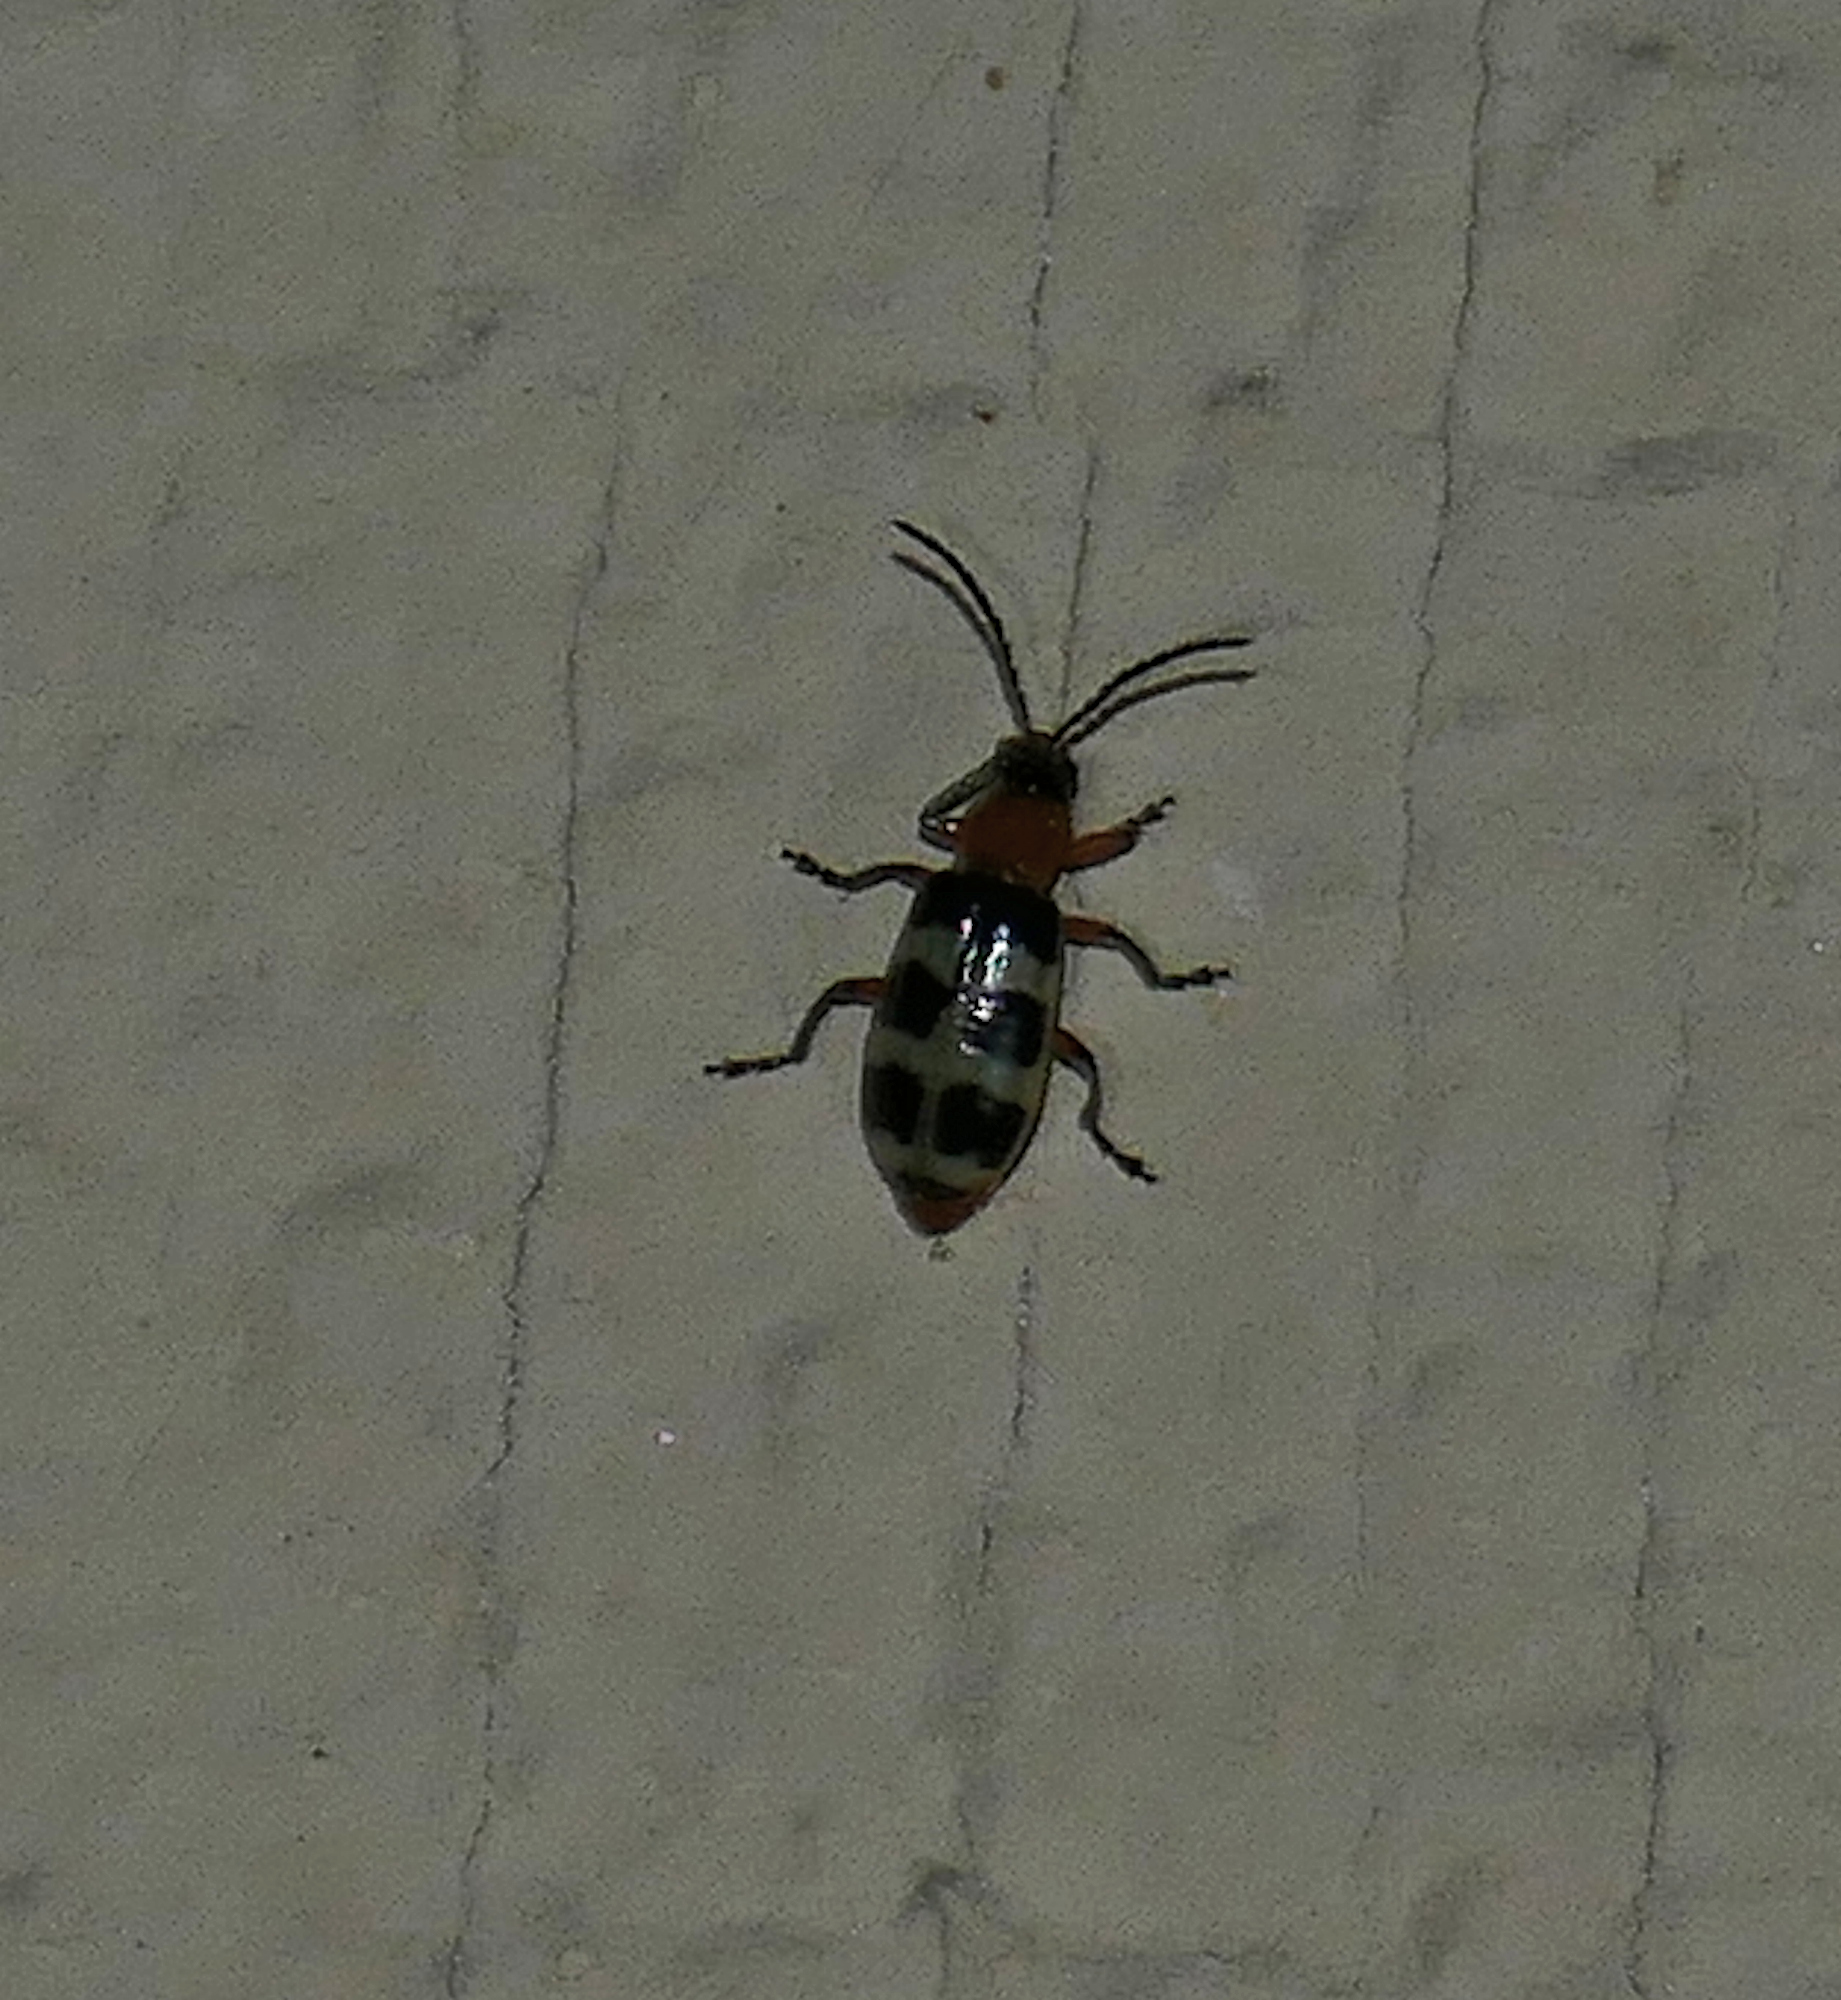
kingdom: Animalia
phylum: Arthropoda
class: Insecta
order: Coleoptera
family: Chrysomelidae
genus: Paranapiacaba
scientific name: Paranapiacaba tricincta
